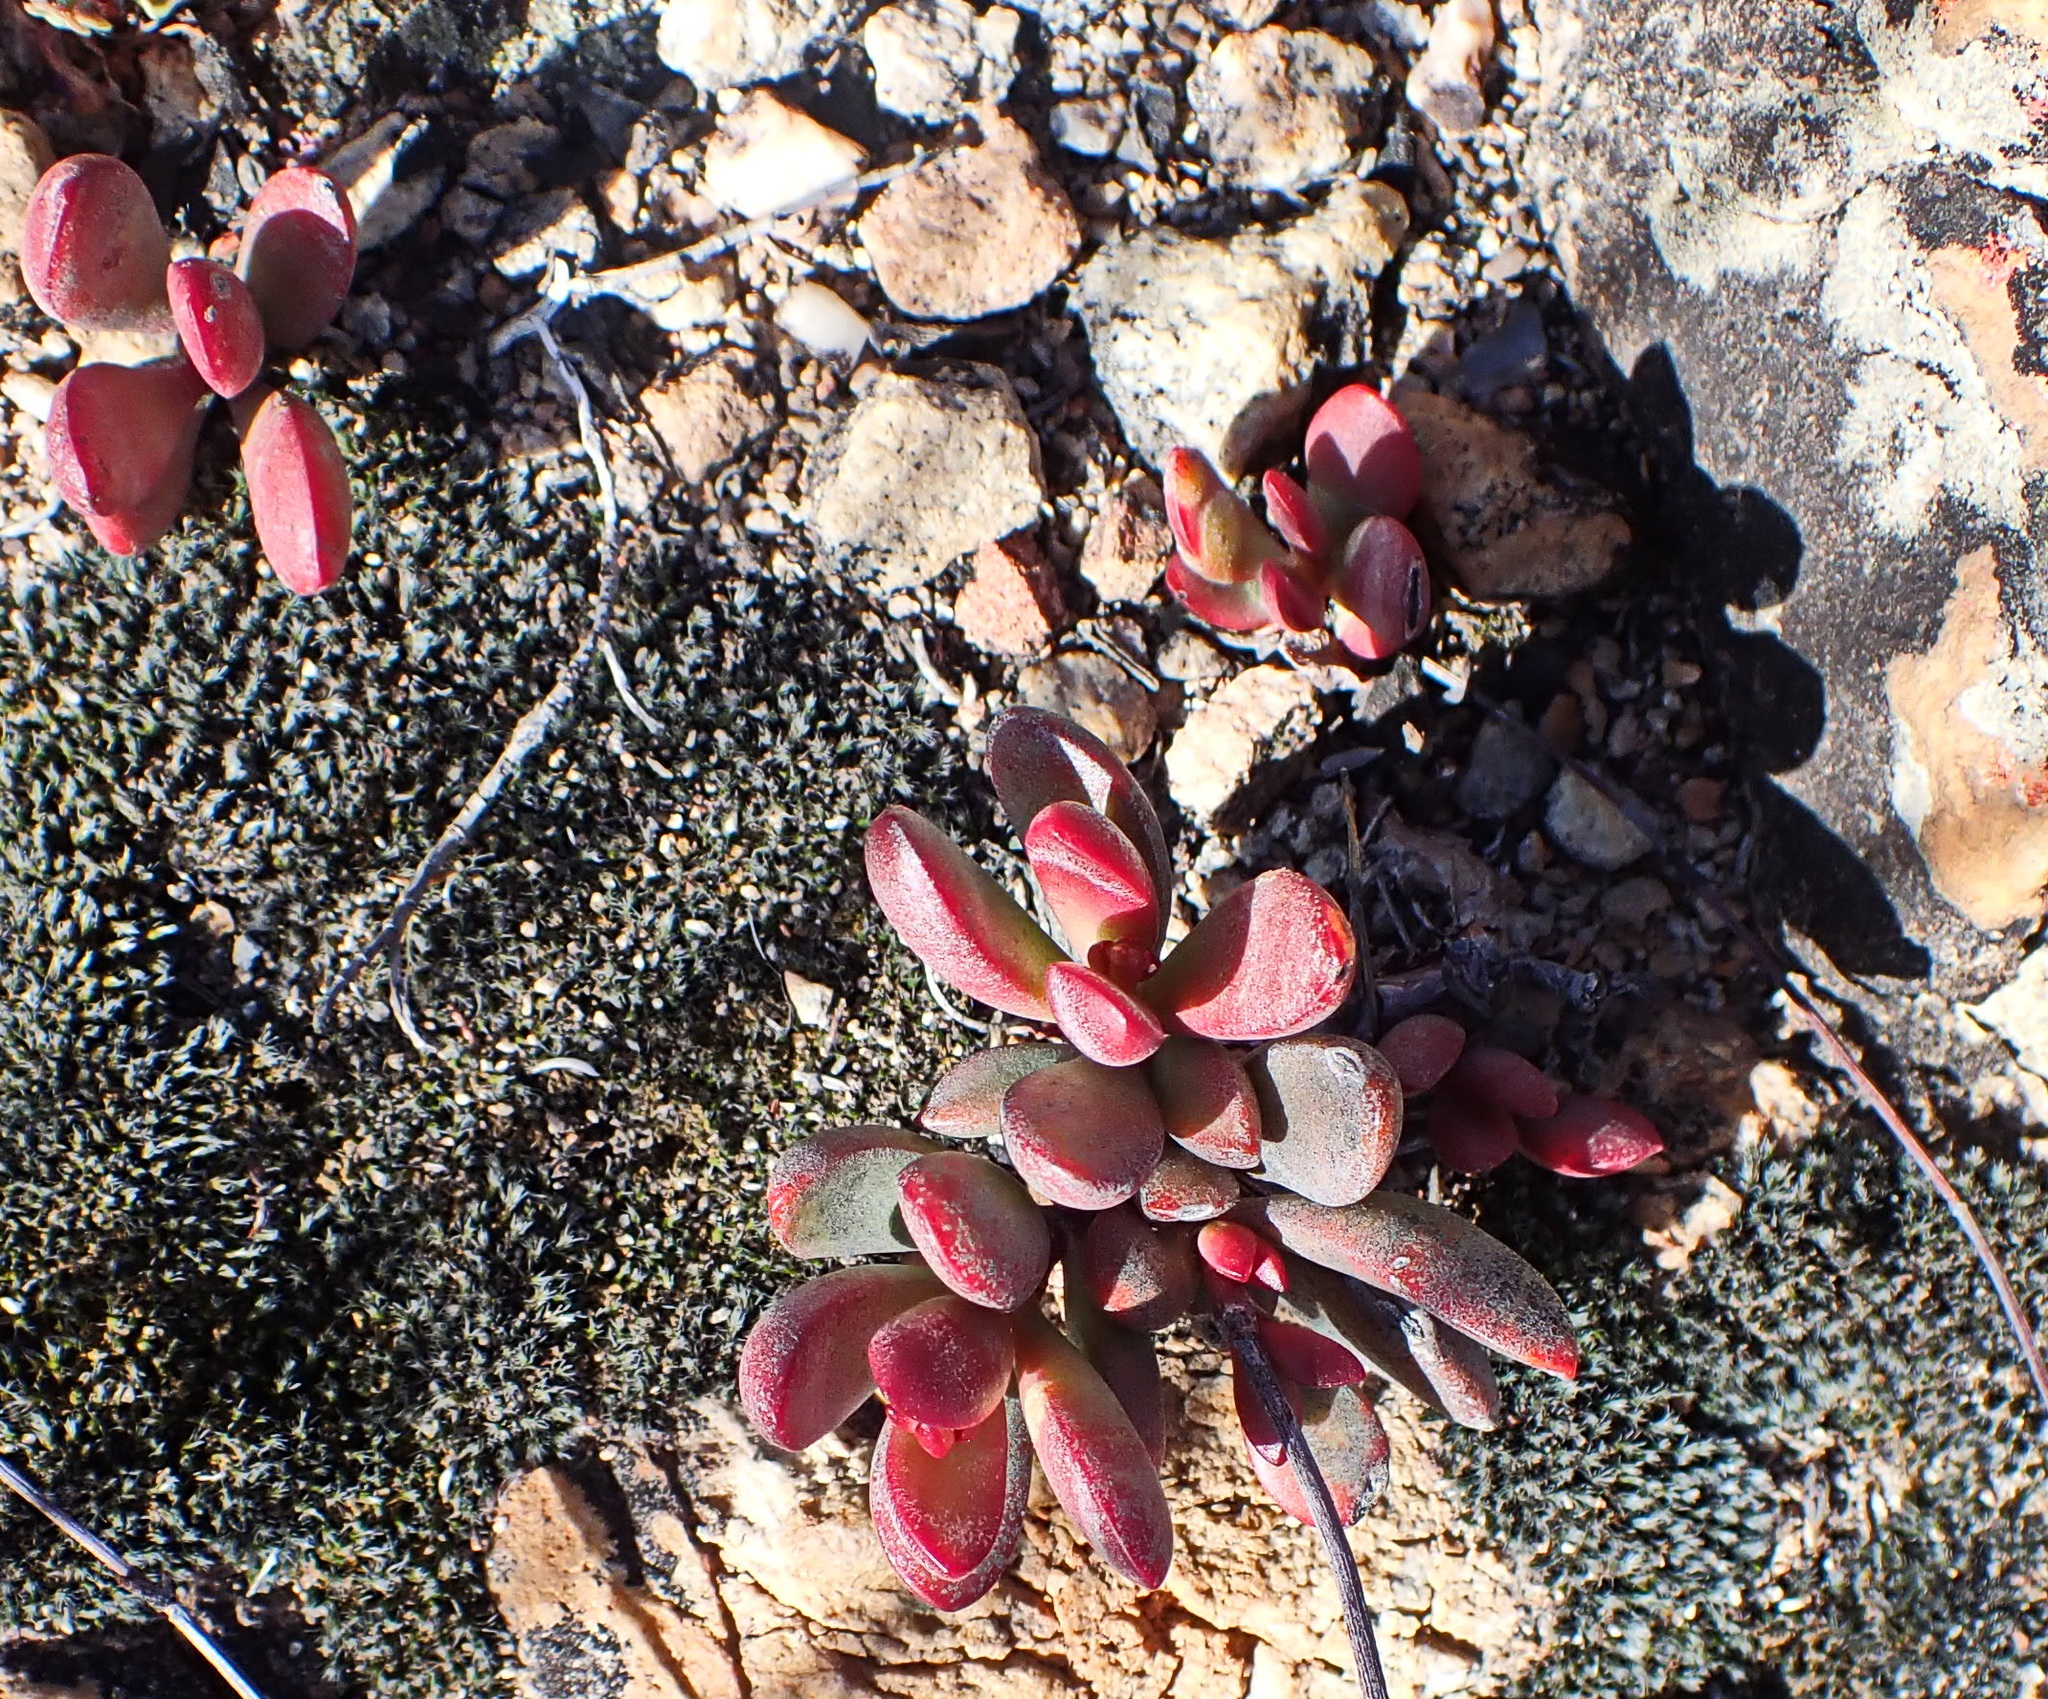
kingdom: Plantae
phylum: Tracheophyta
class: Magnoliopsida
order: Saxifragales
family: Crassulaceae
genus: Crassula
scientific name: Crassula atropurpurea
